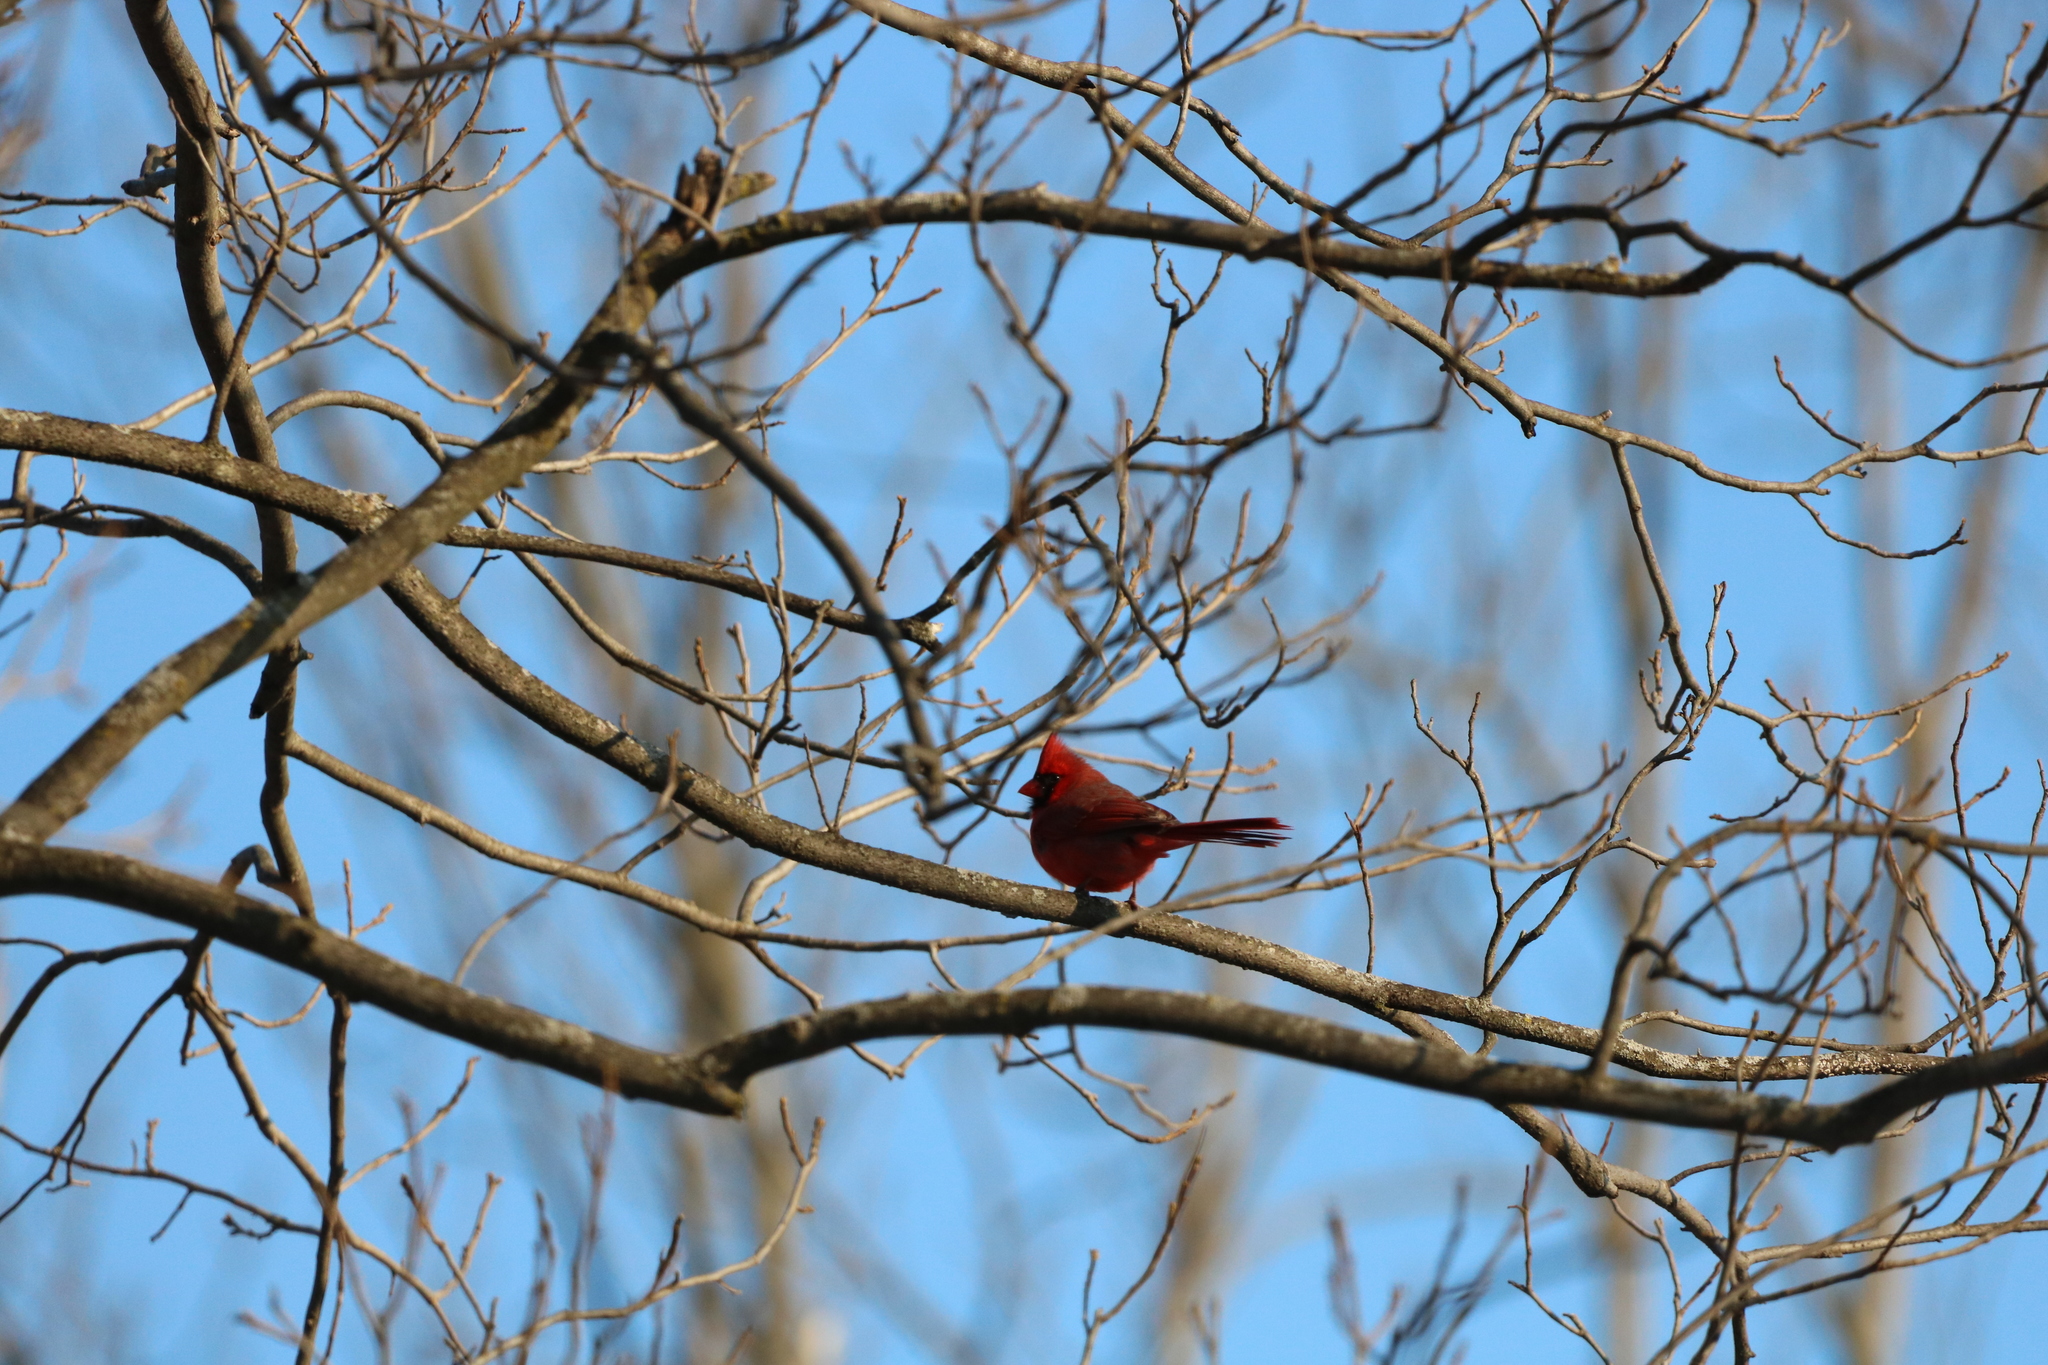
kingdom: Animalia
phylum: Chordata
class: Aves
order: Passeriformes
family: Cardinalidae
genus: Cardinalis
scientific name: Cardinalis cardinalis
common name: Northern cardinal
